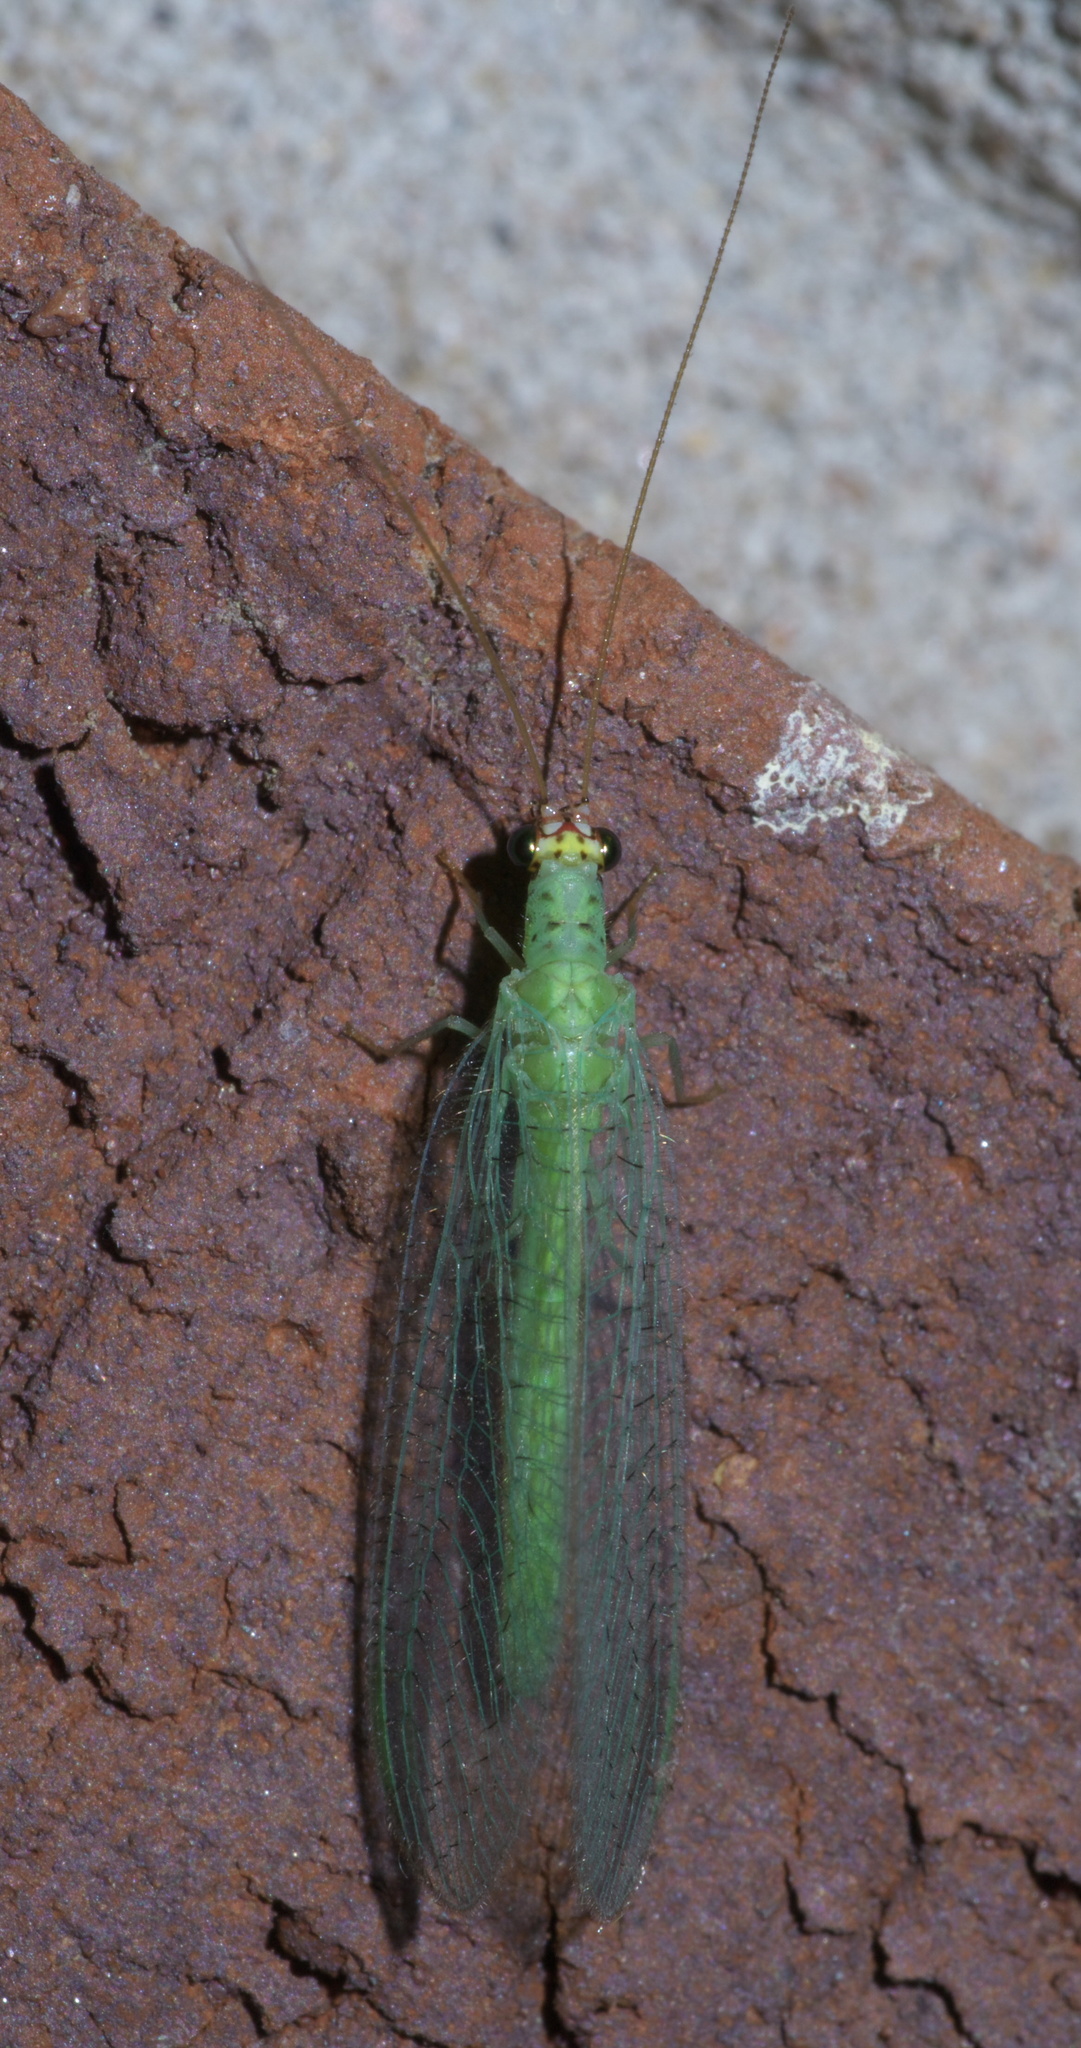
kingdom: Animalia
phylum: Arthropoda
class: Insecta
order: Neuroptera
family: Chrysopidae
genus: Chrysopa
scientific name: Chrysopa oculata
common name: Golden-eyed lacewing
